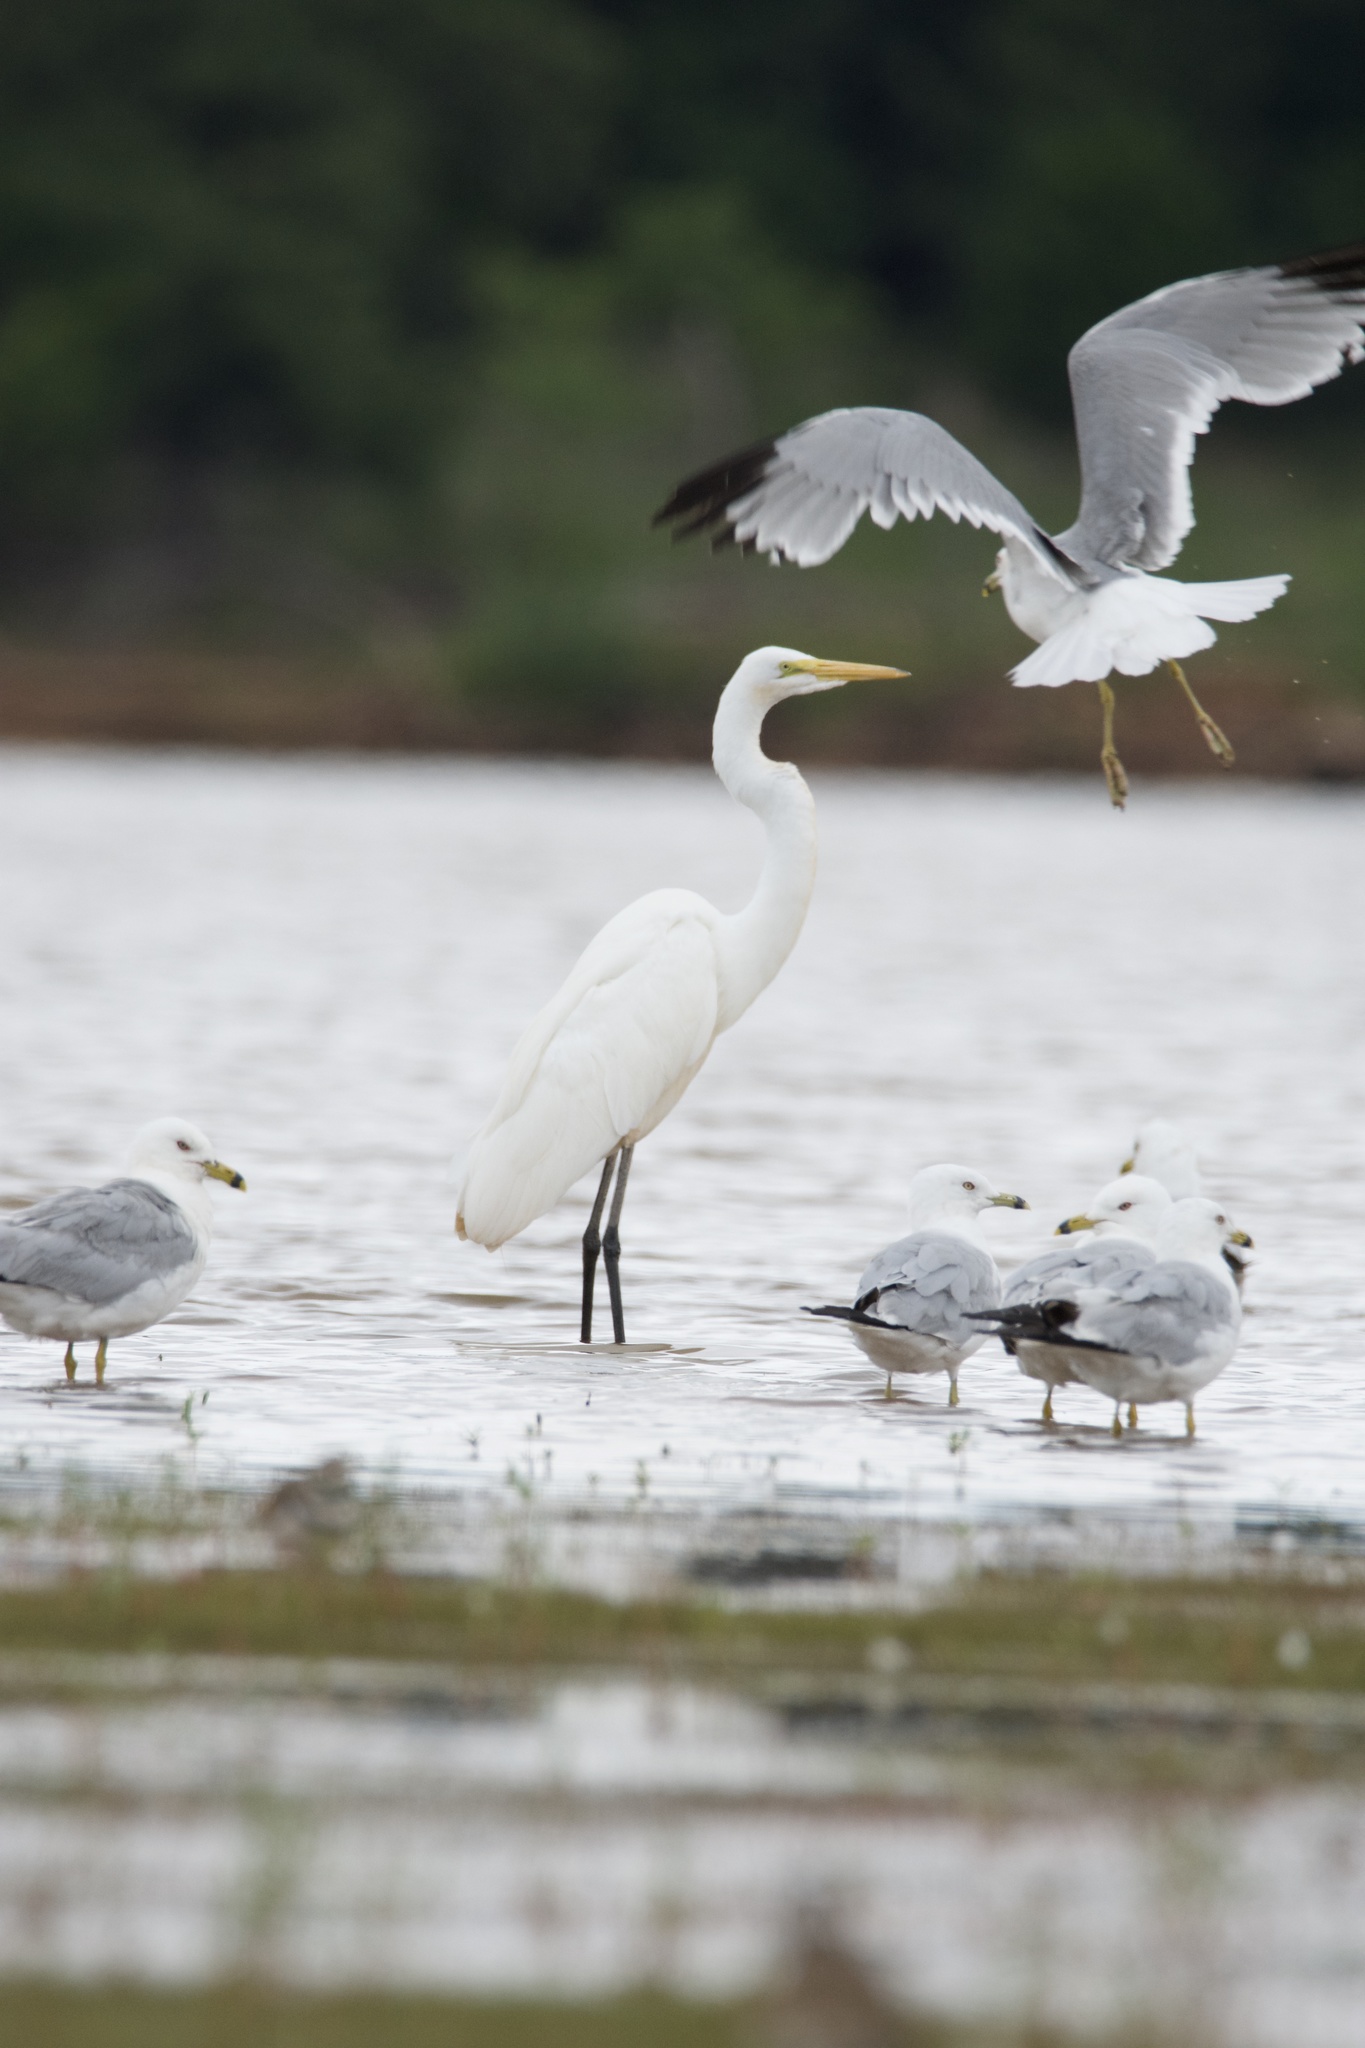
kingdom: Animalia
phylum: Chordata
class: Aves
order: Pelecaniformes
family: Ardeidae
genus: Ardea
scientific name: Ardea alba
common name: Great egret
